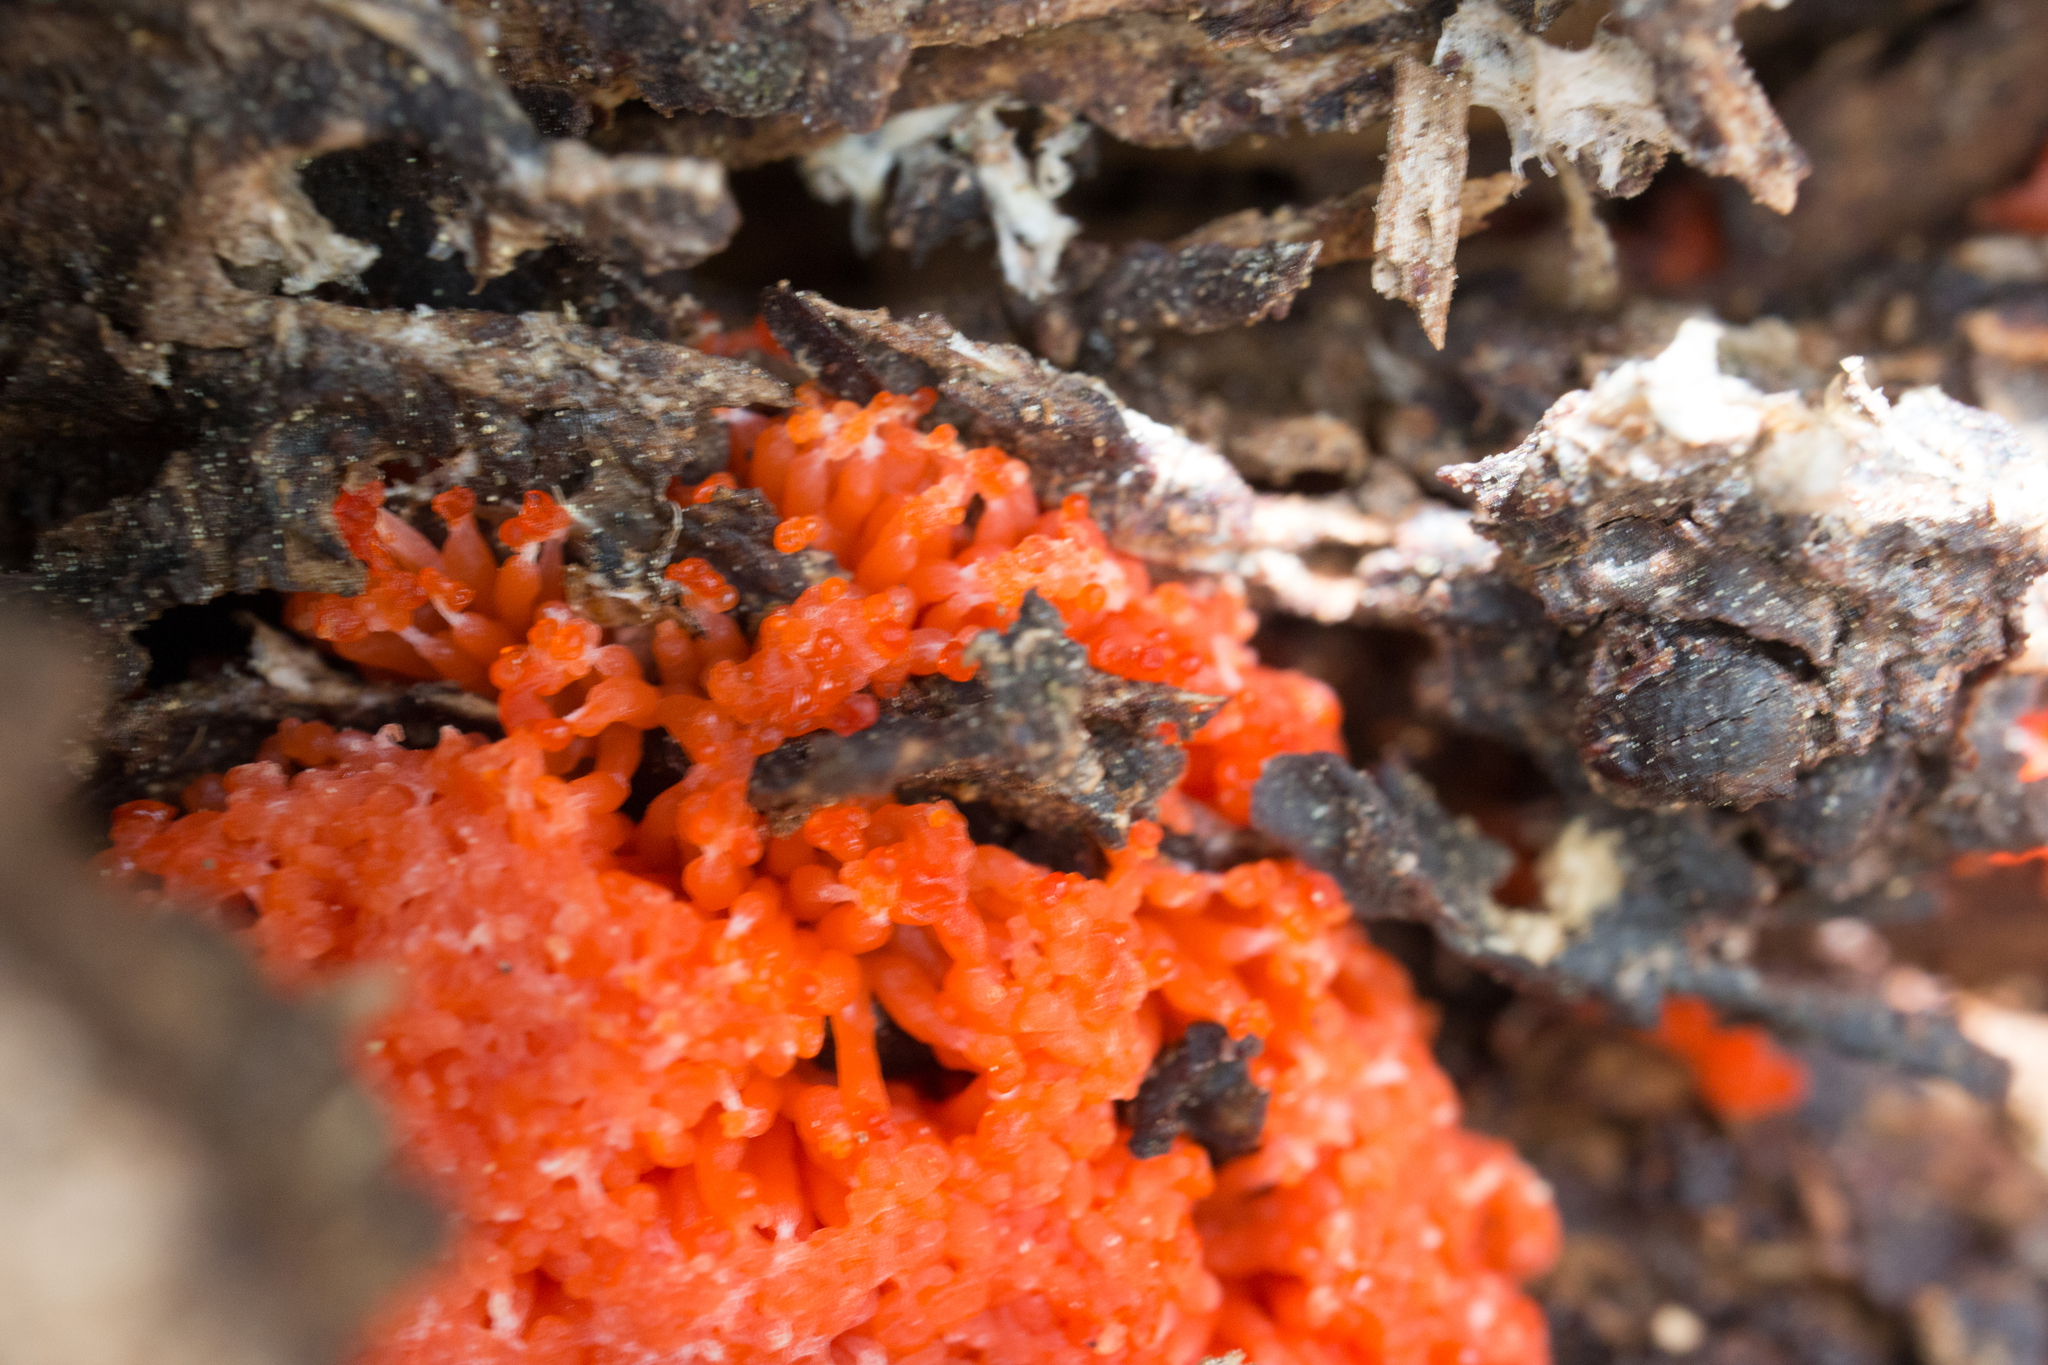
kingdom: Protozoa
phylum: Mycetozoa
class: Myxomycetes
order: Cribrariales
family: Tubiferaceae
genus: Tubifera
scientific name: Tubifera ferruginosa
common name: Red raspberry slime mold
